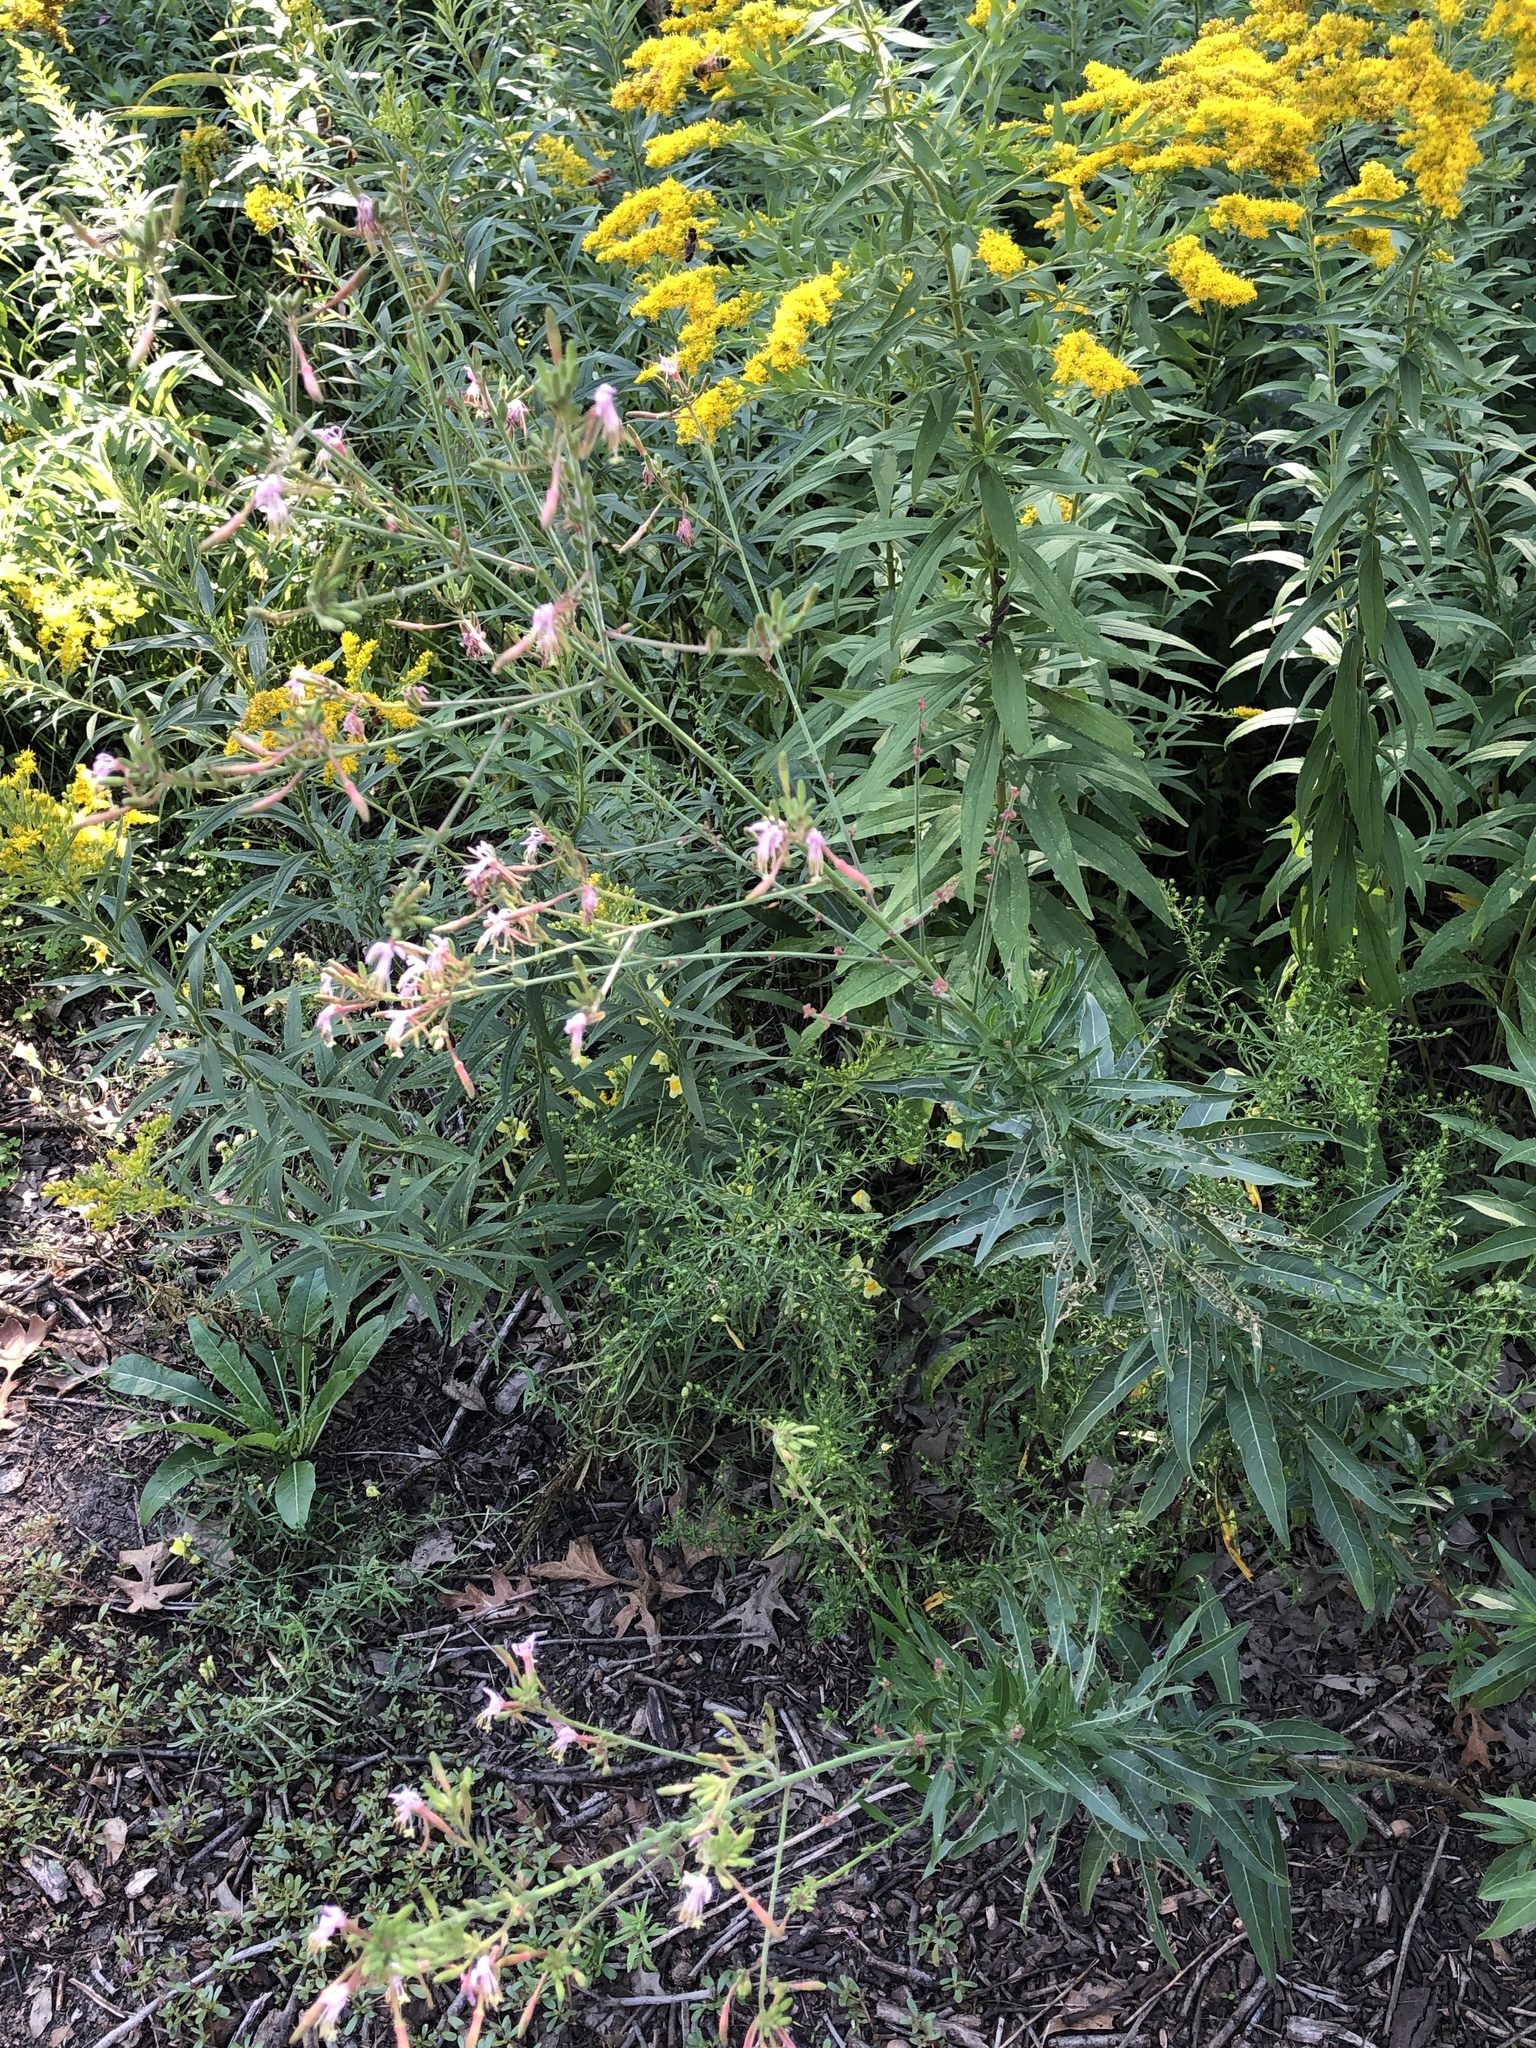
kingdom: Plantae
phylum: Tracheophyta
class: Magnoliopsida
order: Myrtales
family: Onagraceae
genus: Oenothera
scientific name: Oenothera gaura
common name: Biennial beeblossom
